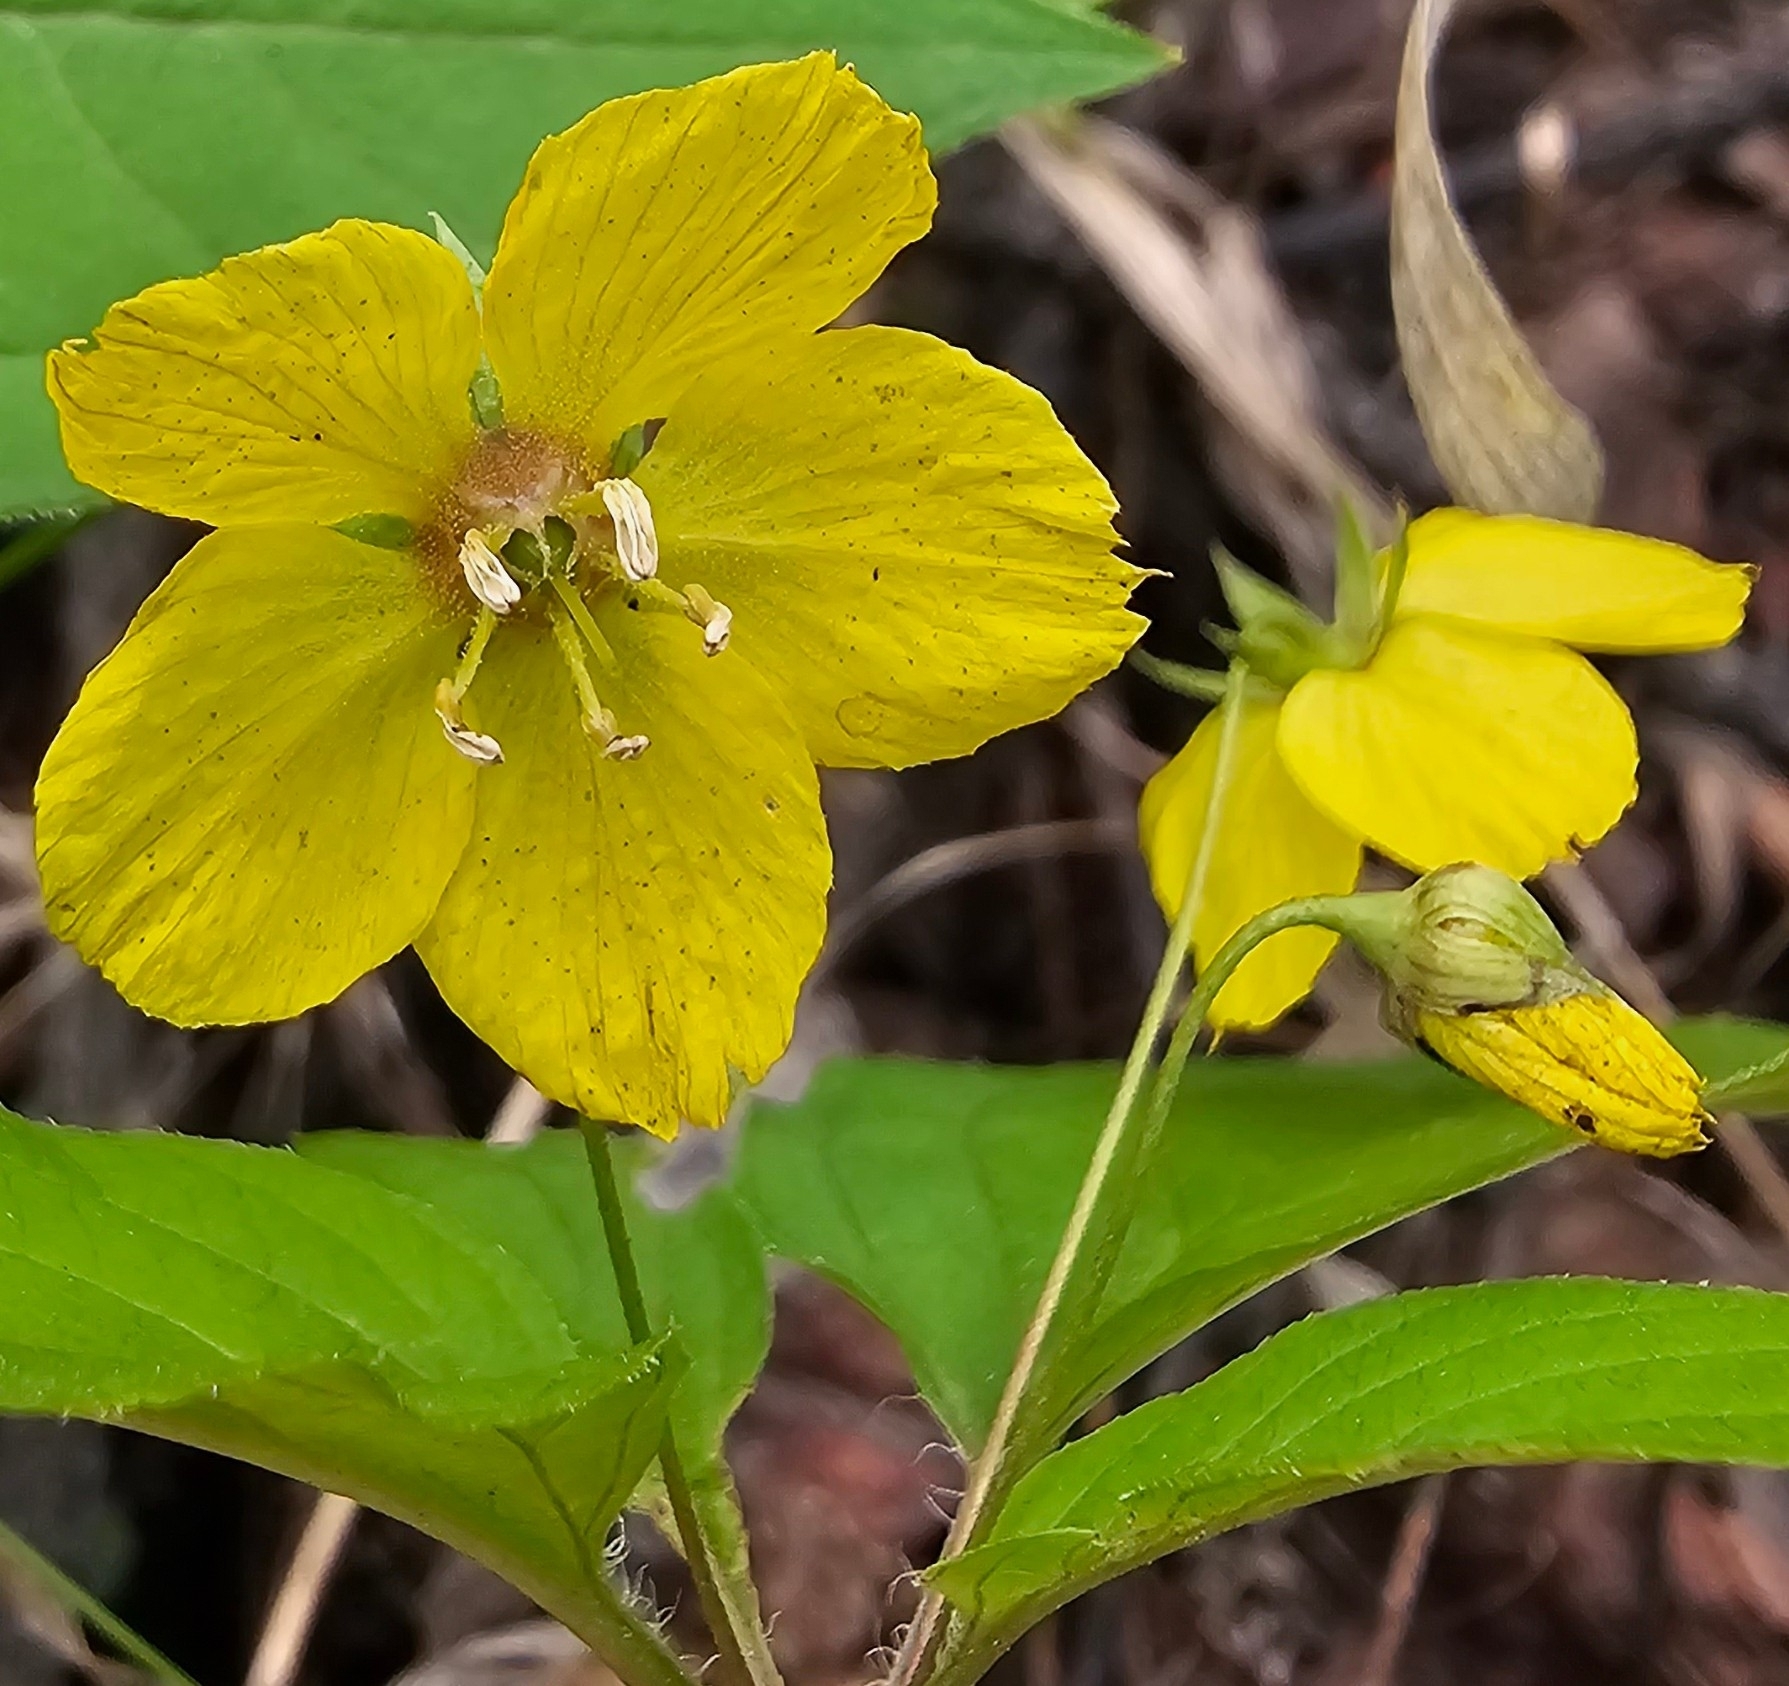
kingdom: Plantae
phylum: Tracheophyta
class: Magnoliopsida
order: Ericales
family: Primulaceae
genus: Lysimachia
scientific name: Lysimachia ciliata
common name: Fringed loosestrife
